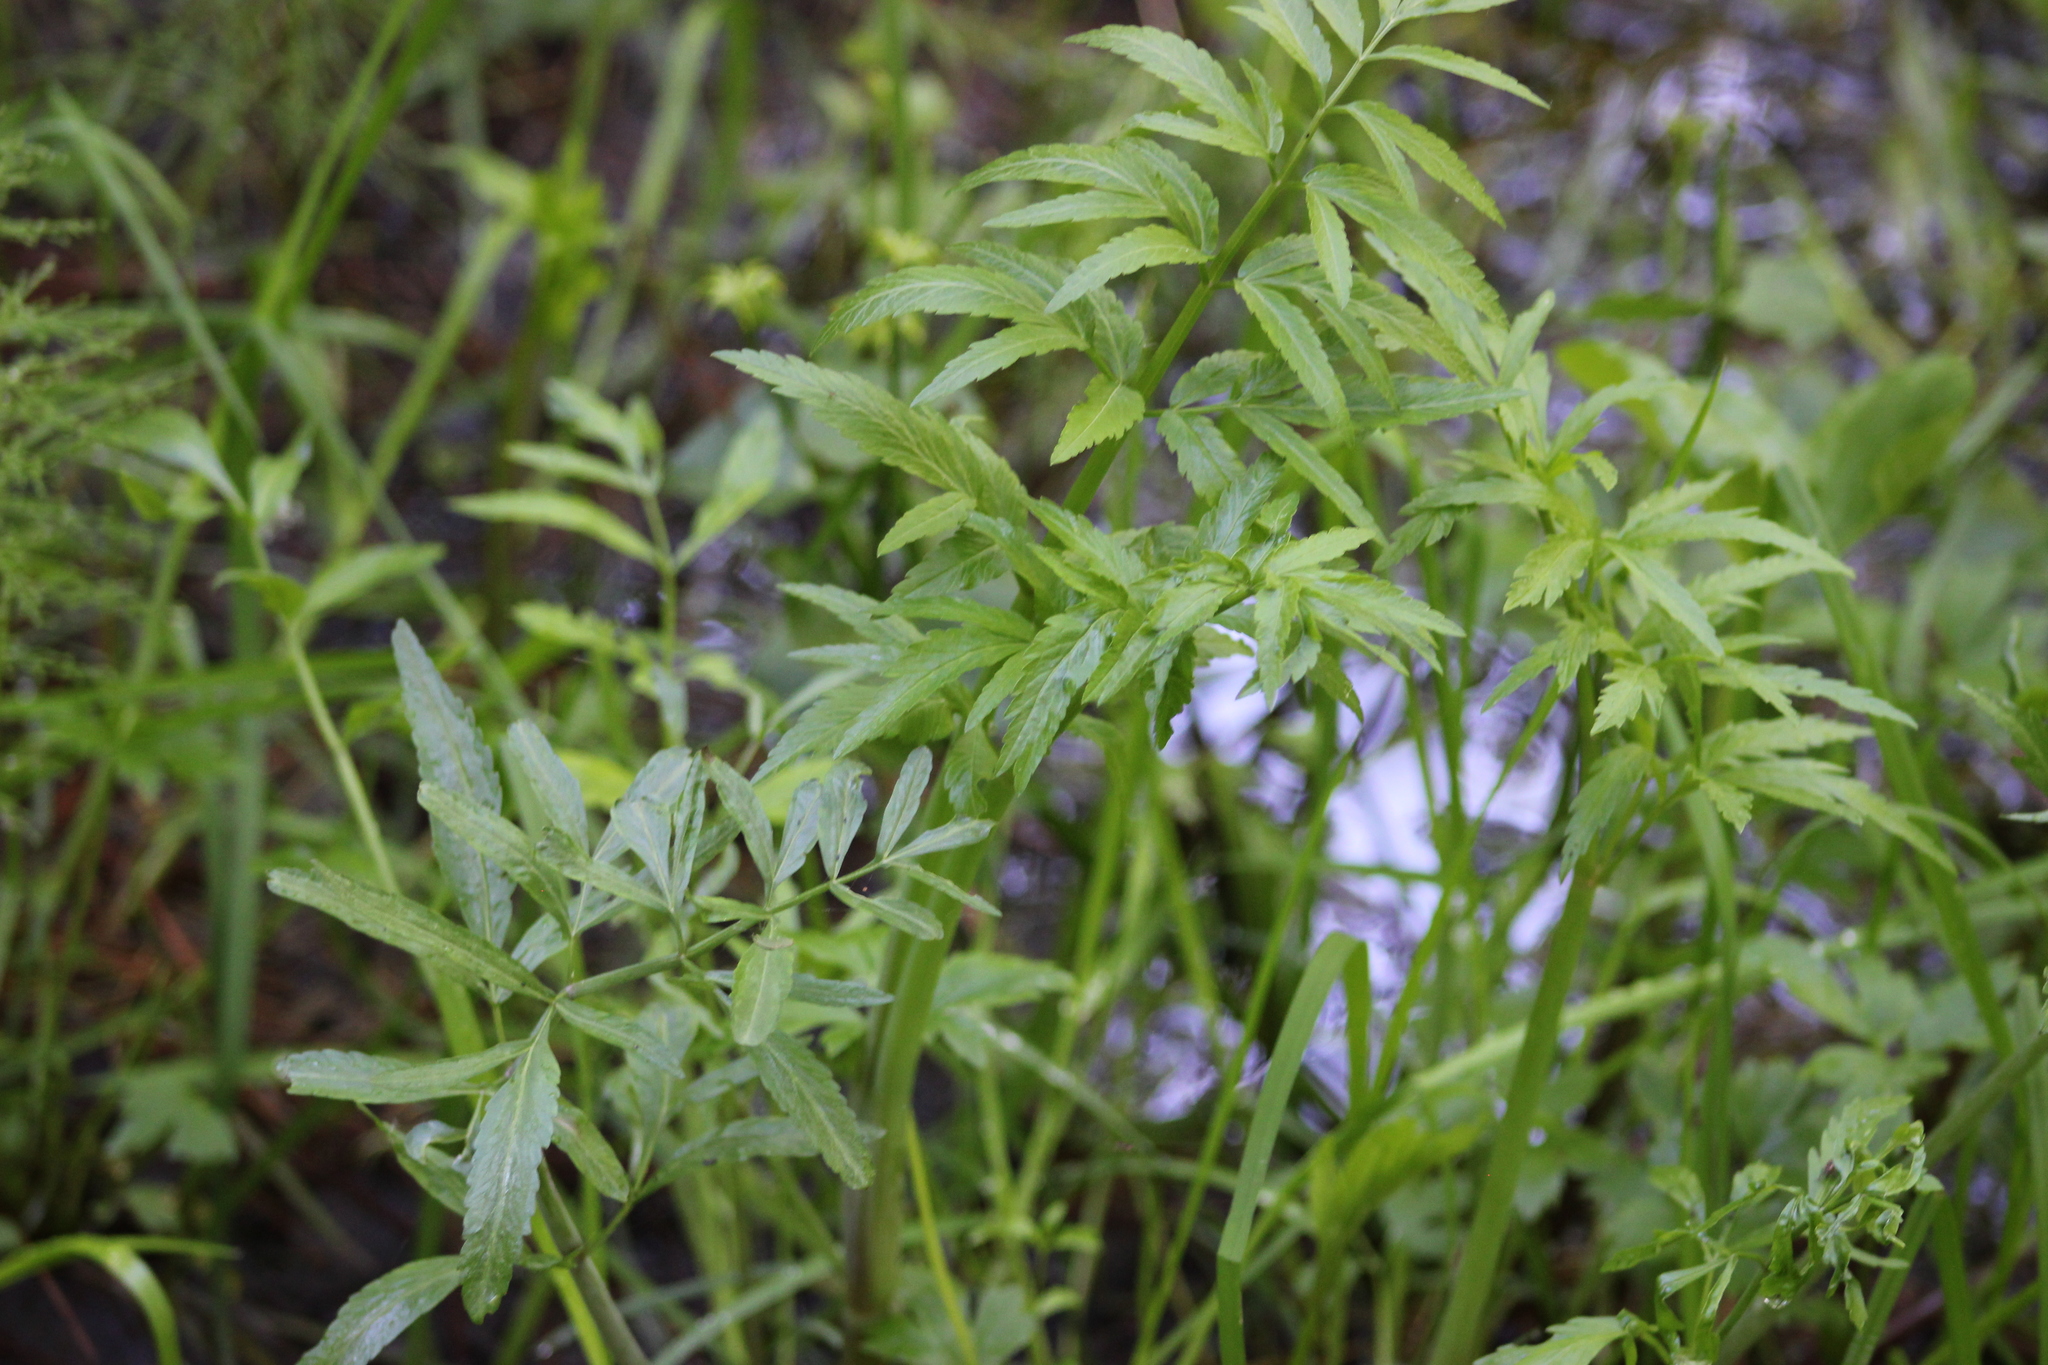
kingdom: Plantae
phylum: Tracheophyta
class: Magnoliopsida
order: Apiales
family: Apiaceae
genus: Cicuta
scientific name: Cicuta virosa
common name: Cowbane
